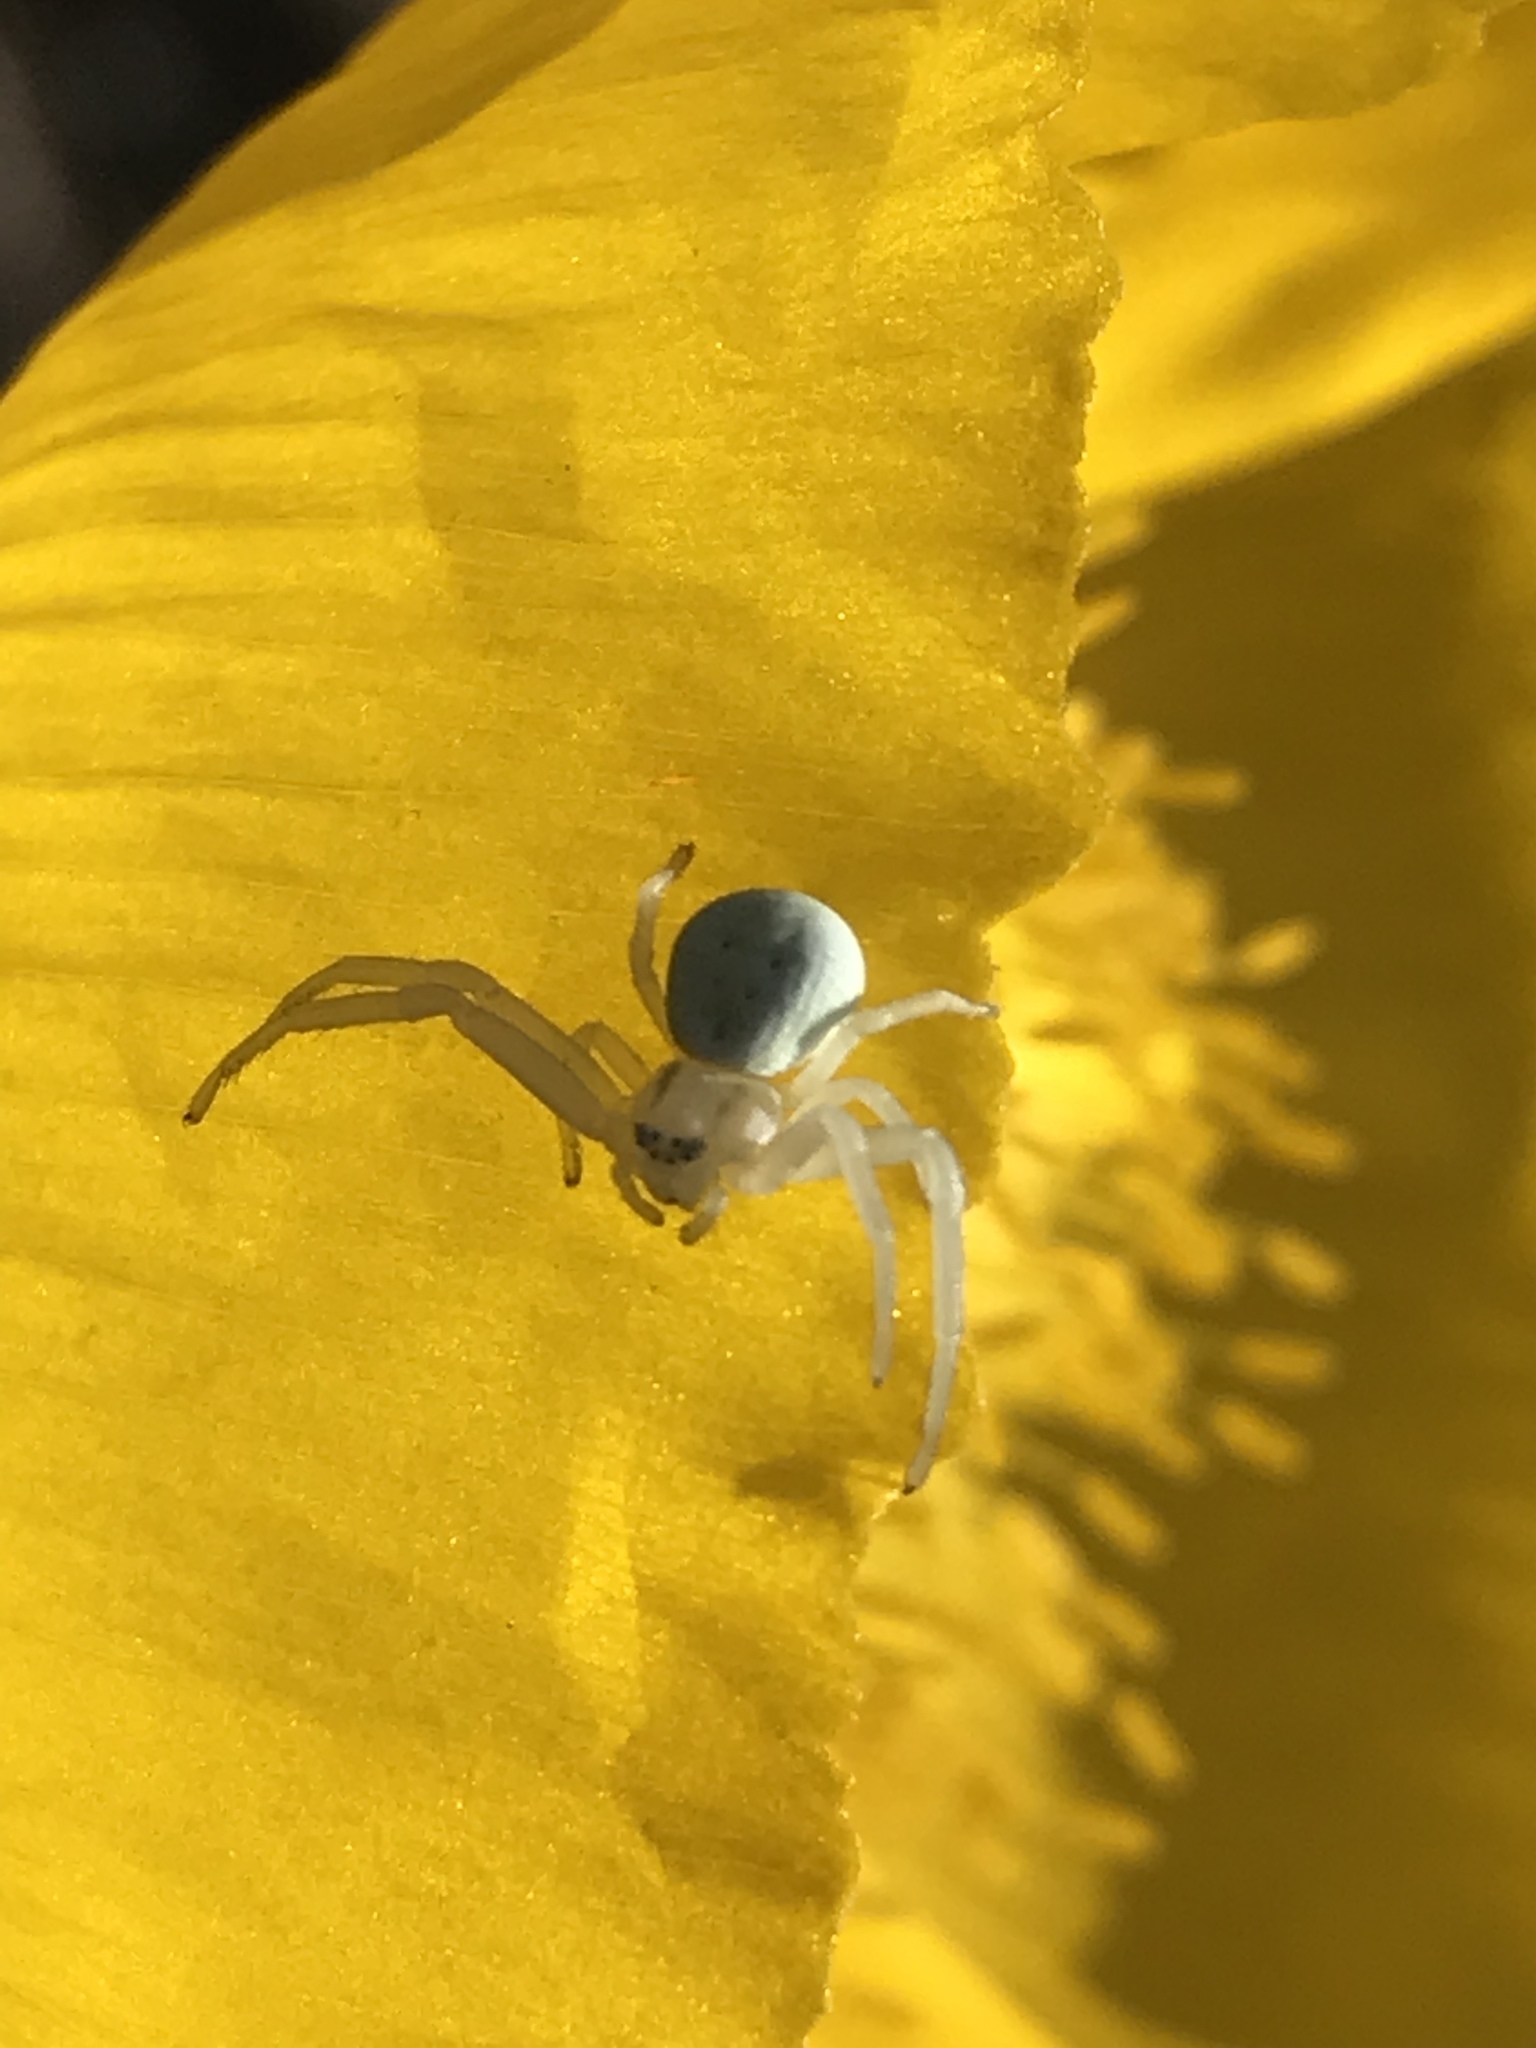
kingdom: Animalia
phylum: Arthropoda
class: Arachnida
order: Araneae
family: Thomisidae
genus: Misumena
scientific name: Misumena vatia
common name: Goldenrod crab spider
